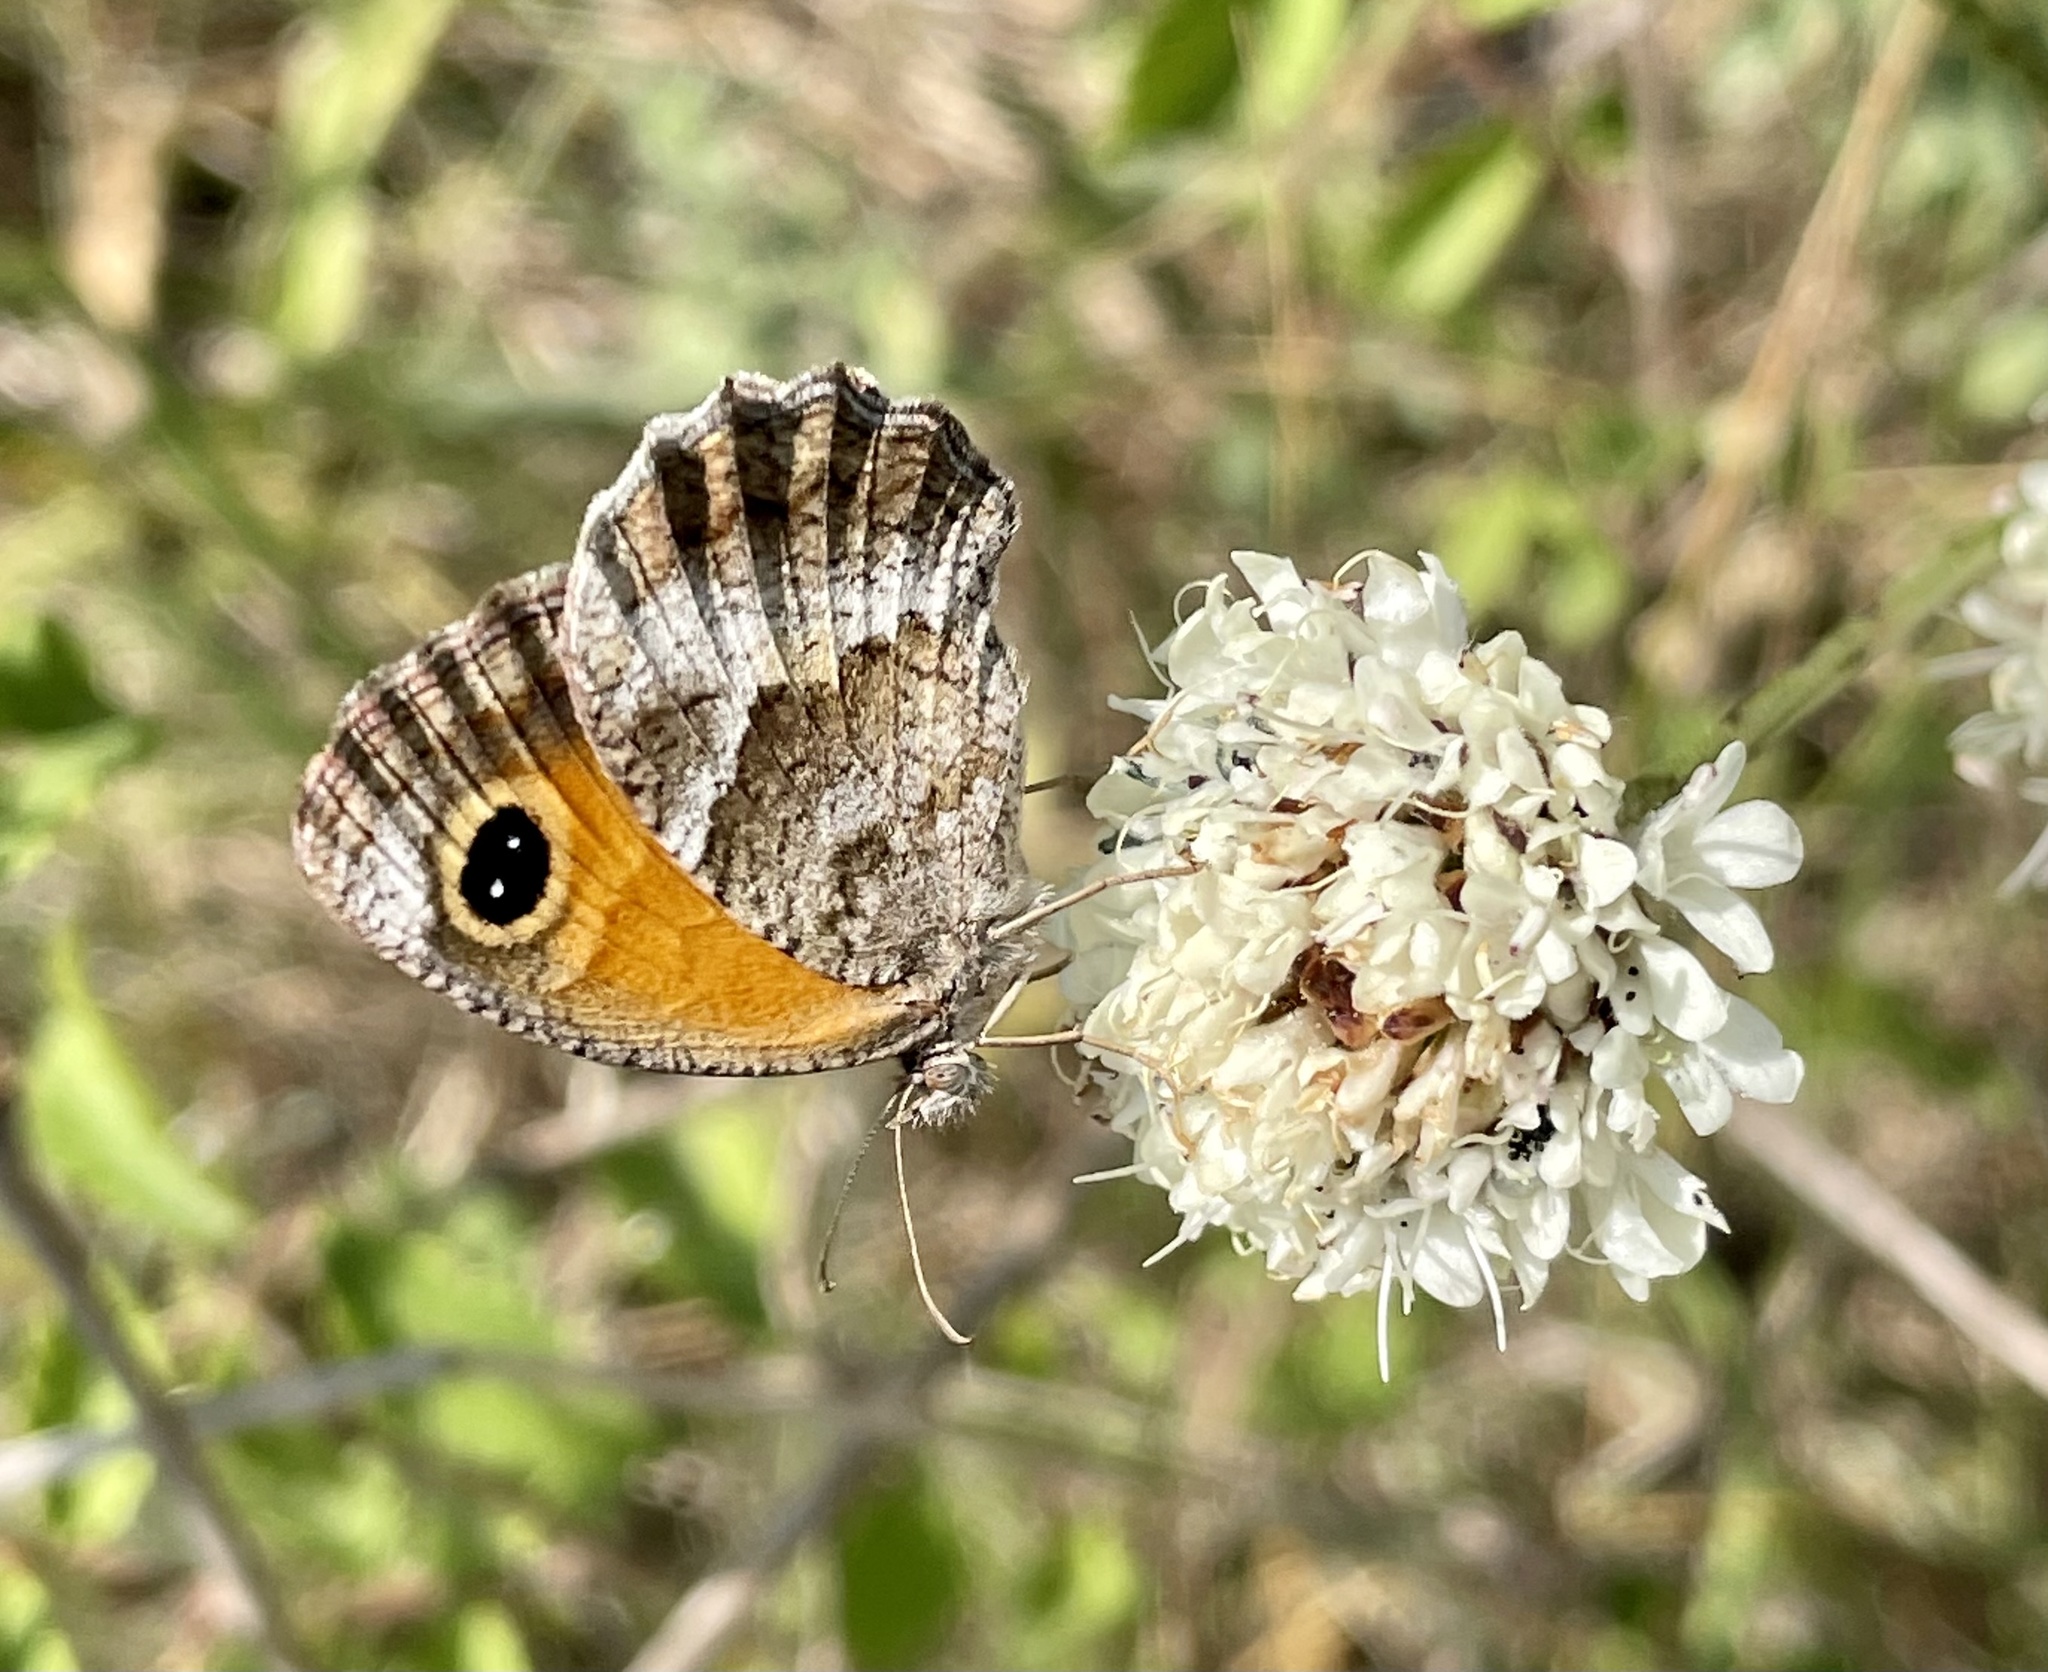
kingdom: Animalia
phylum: Arthropoda
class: Insecta
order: Lepidoptera
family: Nymphalidae
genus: Pyronia
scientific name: Pyronia cecilia
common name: Southern gatekeeper
